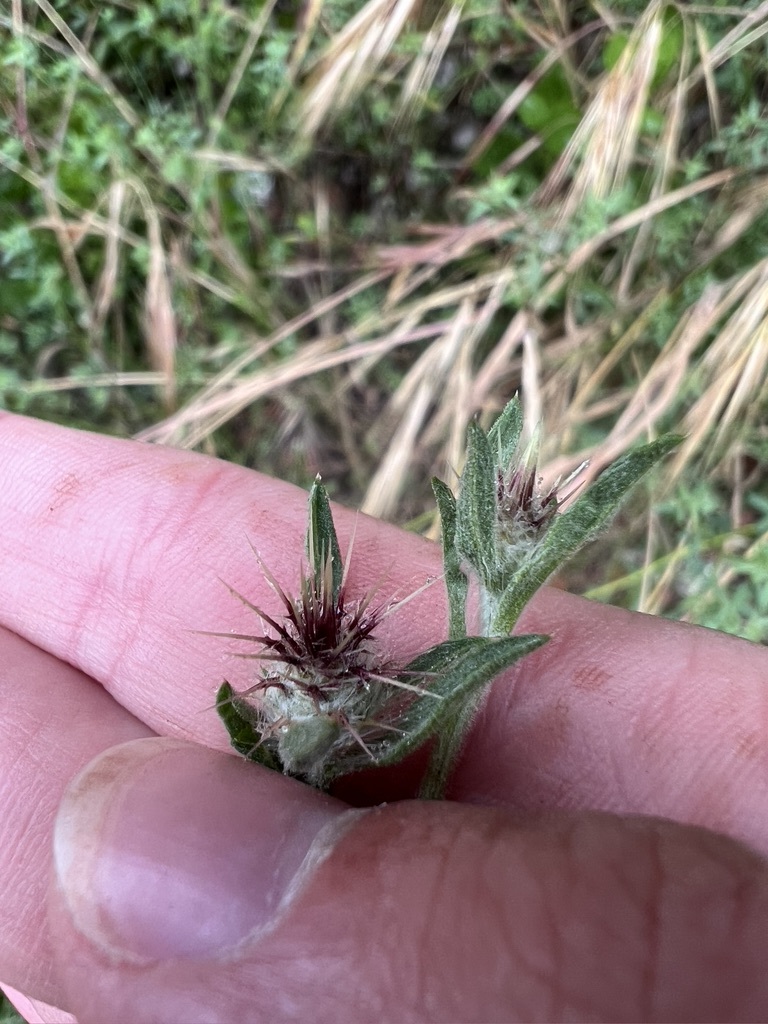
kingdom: Plantae
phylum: Tracheophyta
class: Magnoliopsida
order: Asterales
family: Asteraceae
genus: Centaurea
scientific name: Centaurea melitensis
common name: Maltese star-thistle
